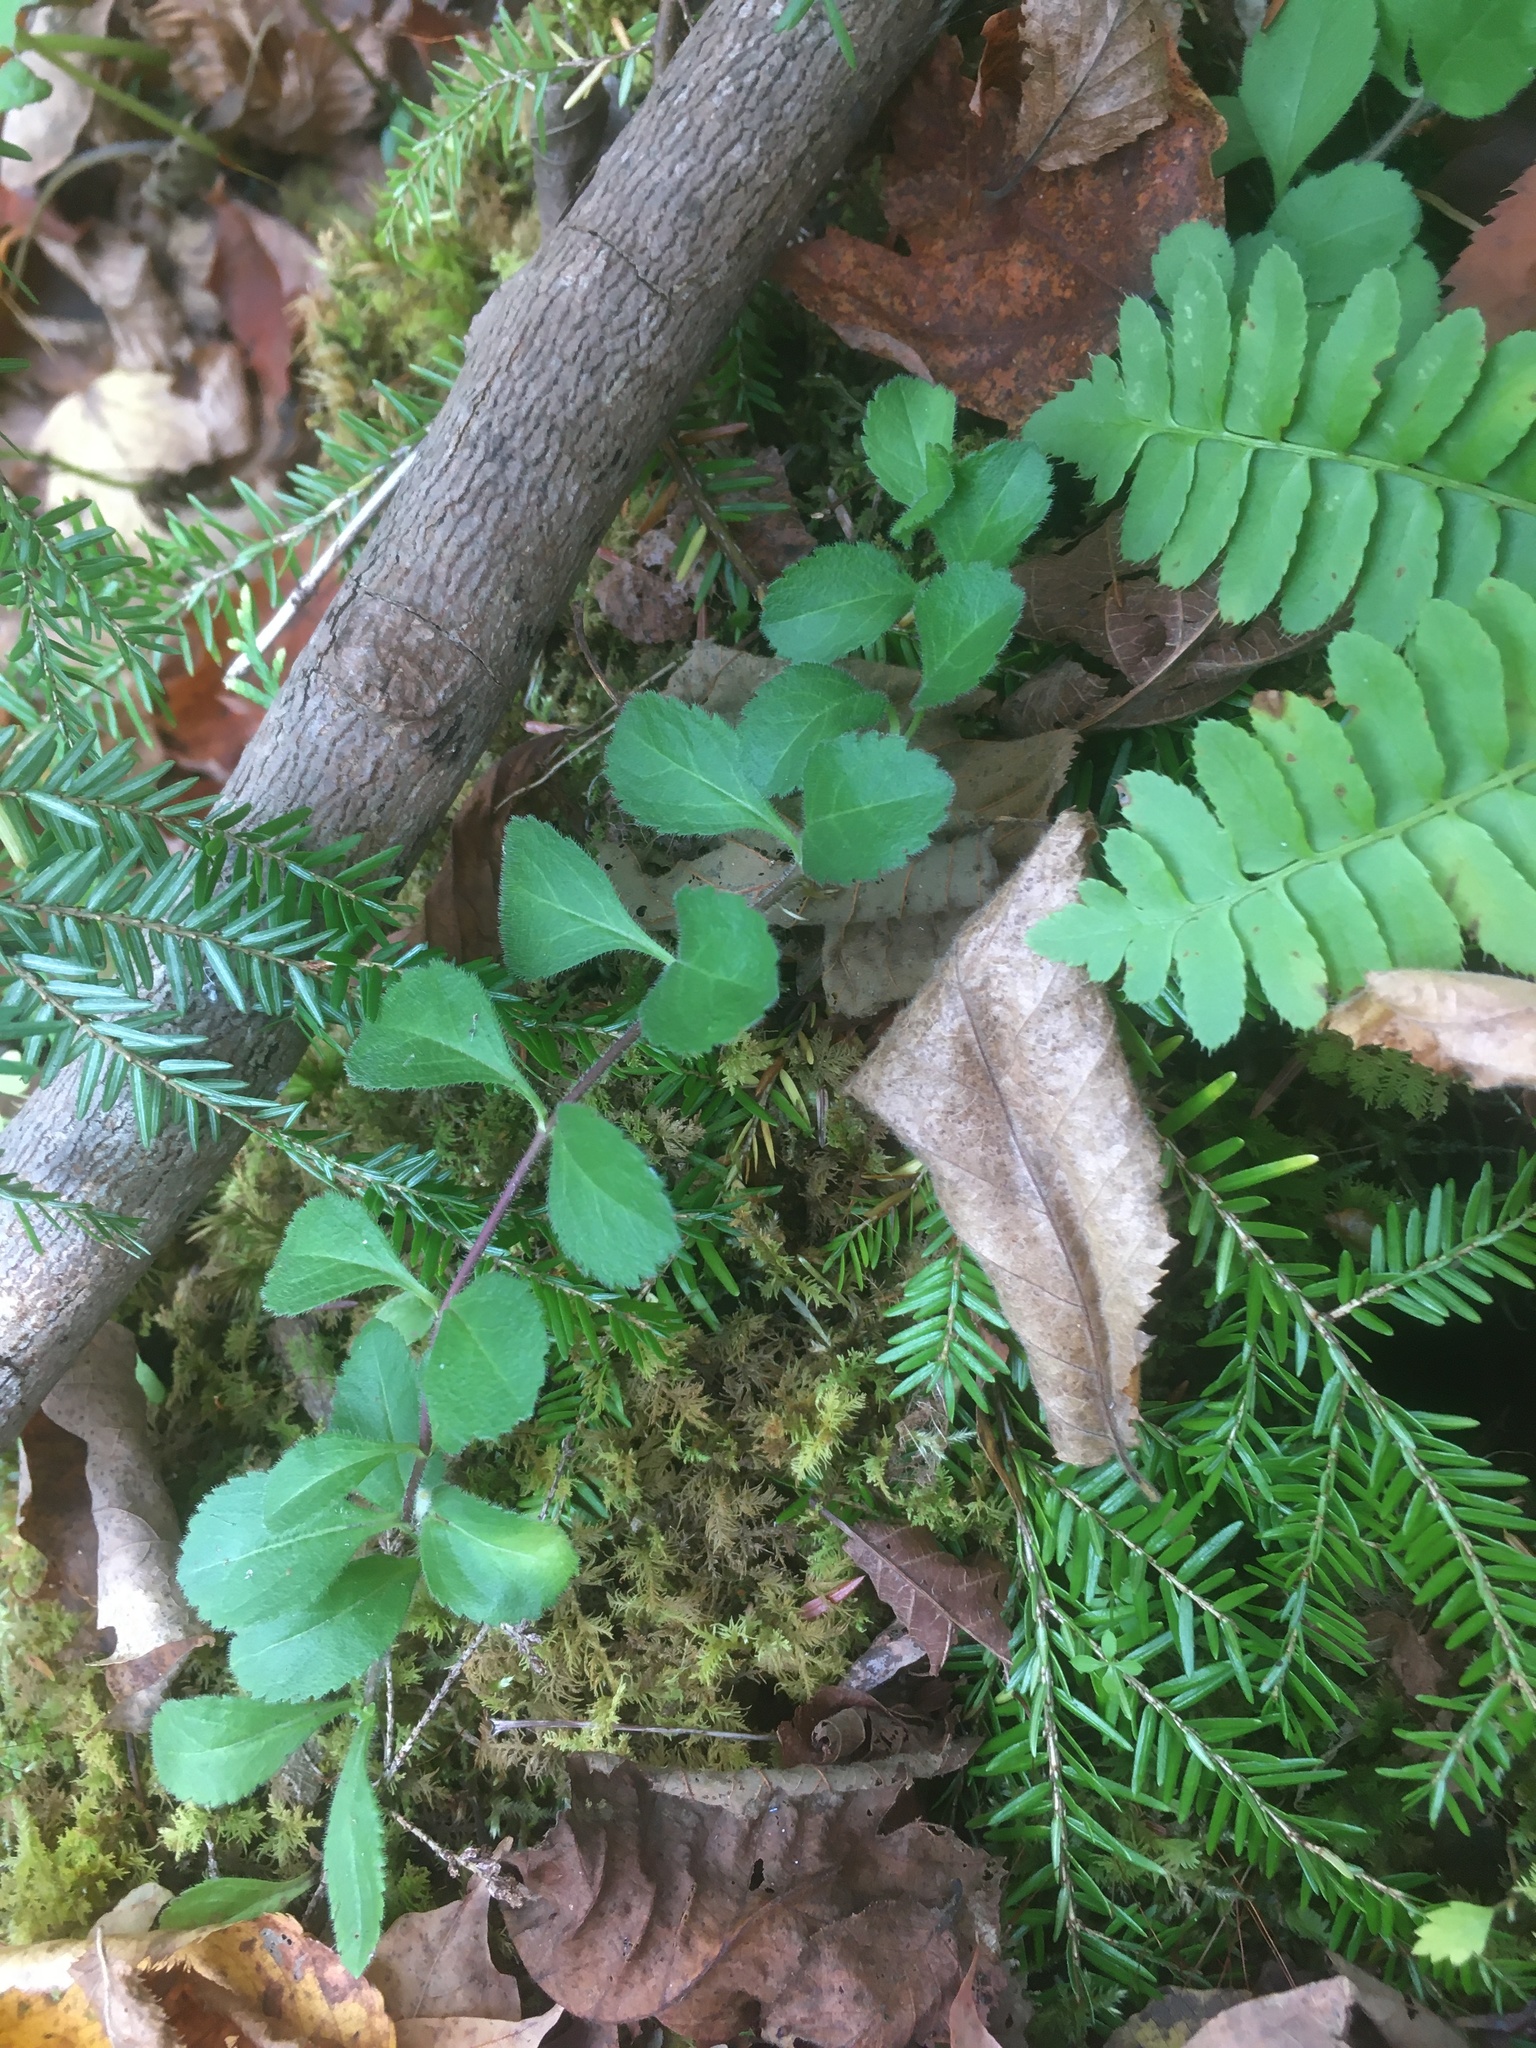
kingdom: Plantae
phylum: Tracheophyta
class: Magnoliopsida
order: Lamiales
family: Plantaginaceae
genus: Veronica
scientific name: Veronica officinalis
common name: Common speedwell
